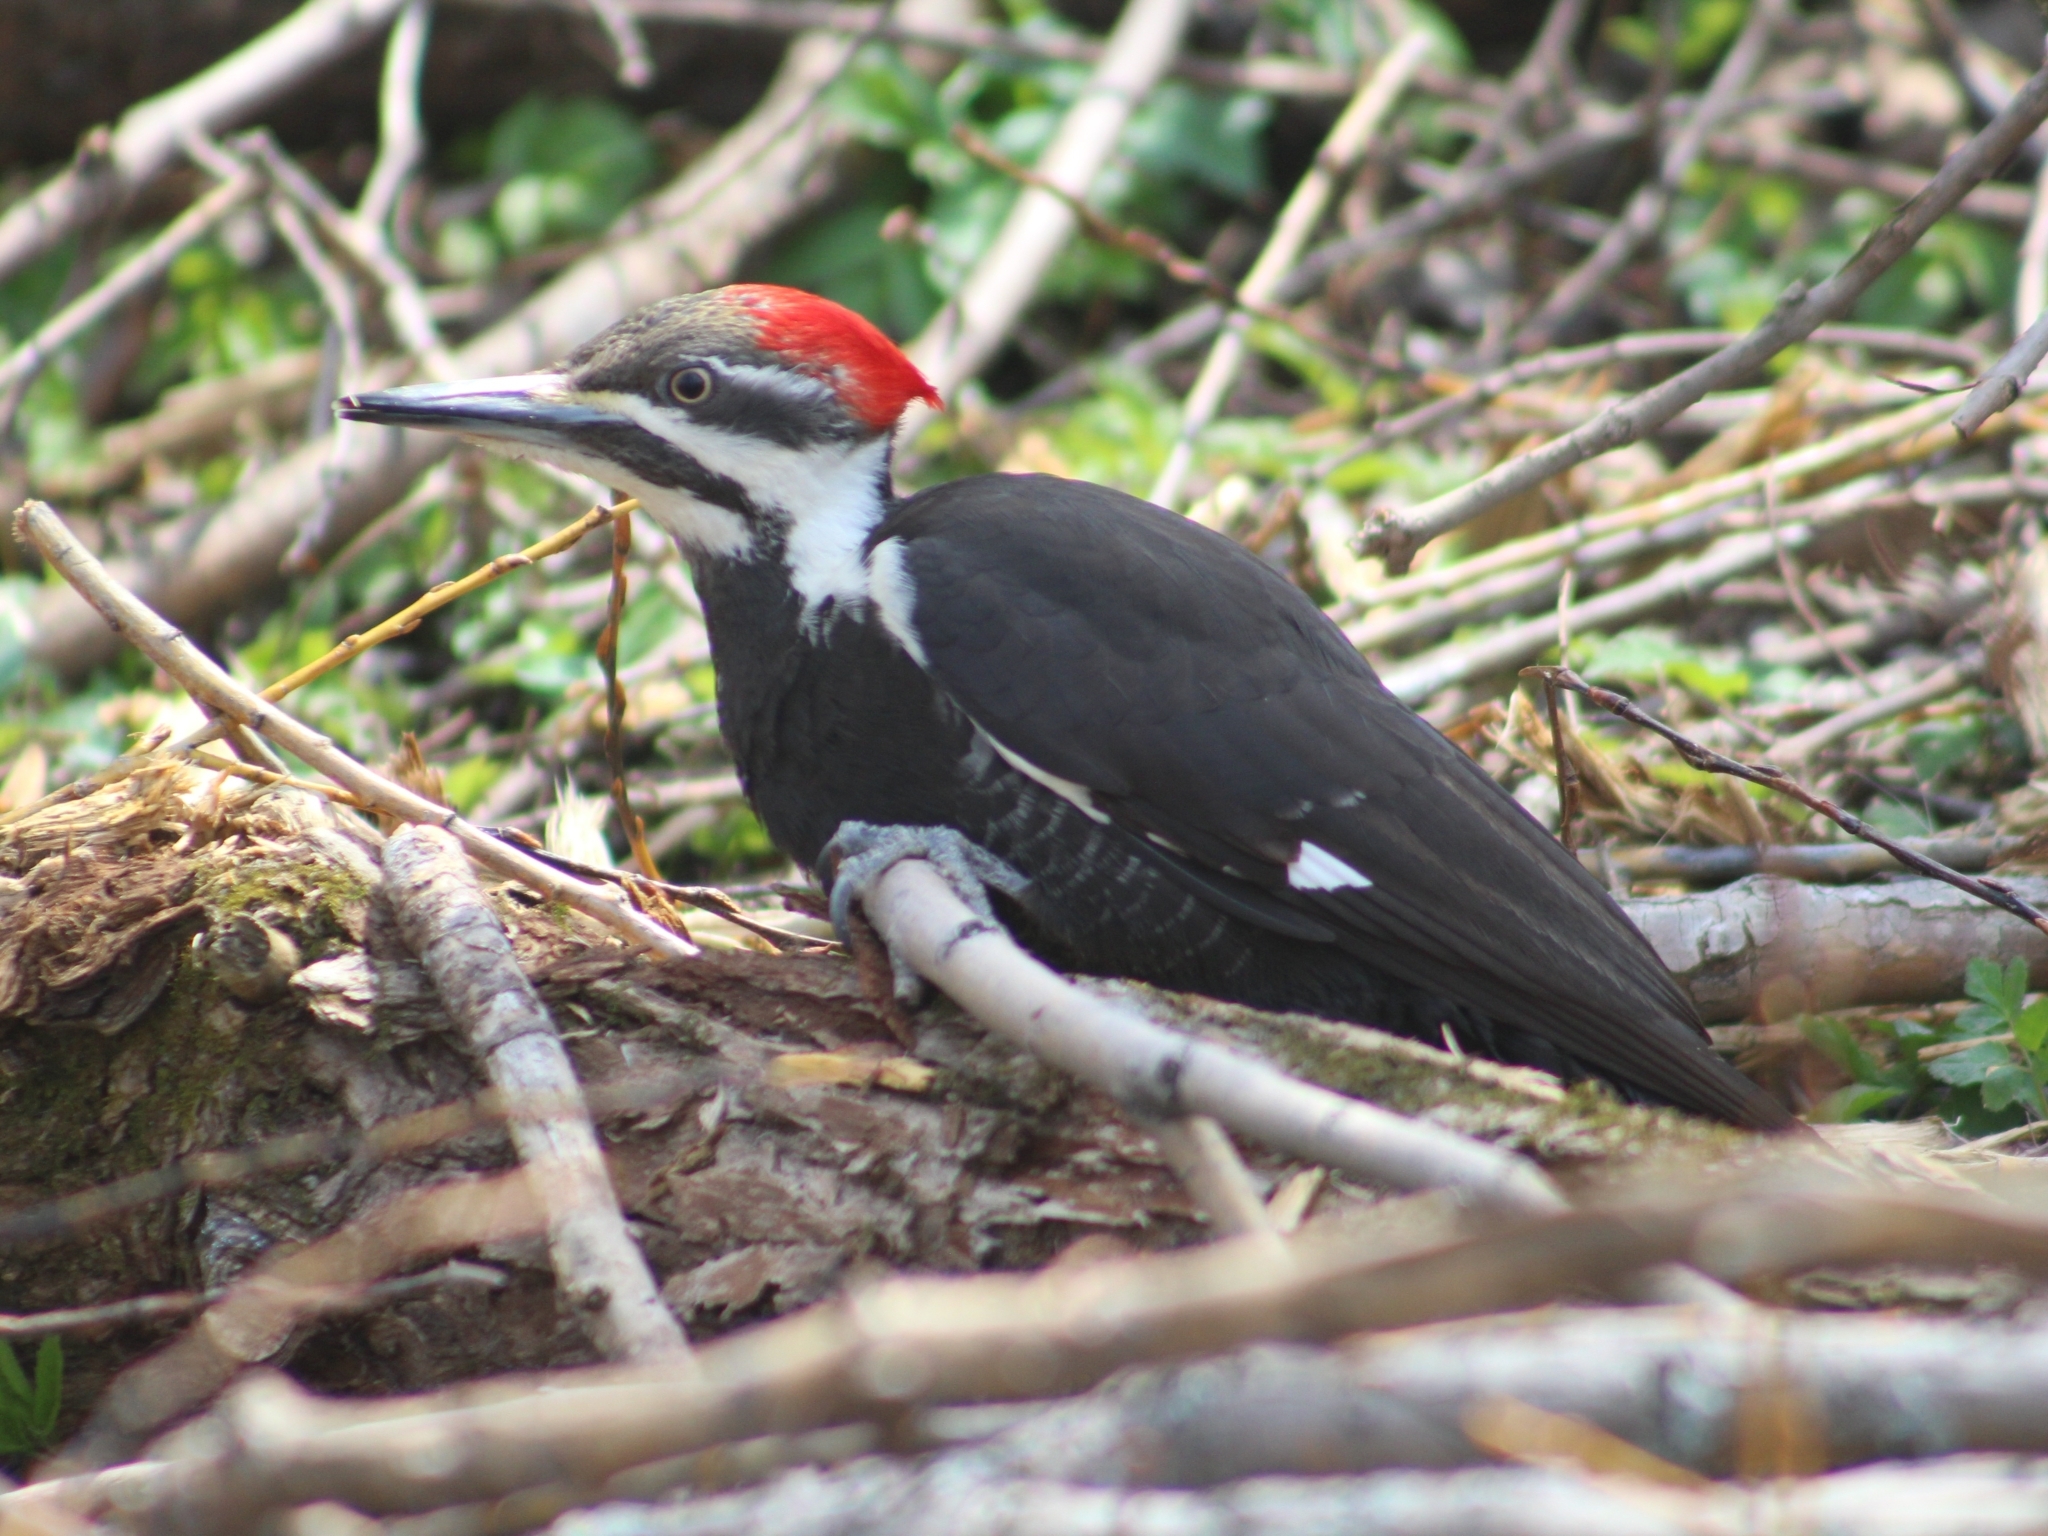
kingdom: Animalia
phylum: Chordata
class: Aves
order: Piciformes
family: Picidae
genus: Dryocopus
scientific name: Dryocopus pileatus
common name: Pileated woodpecker
